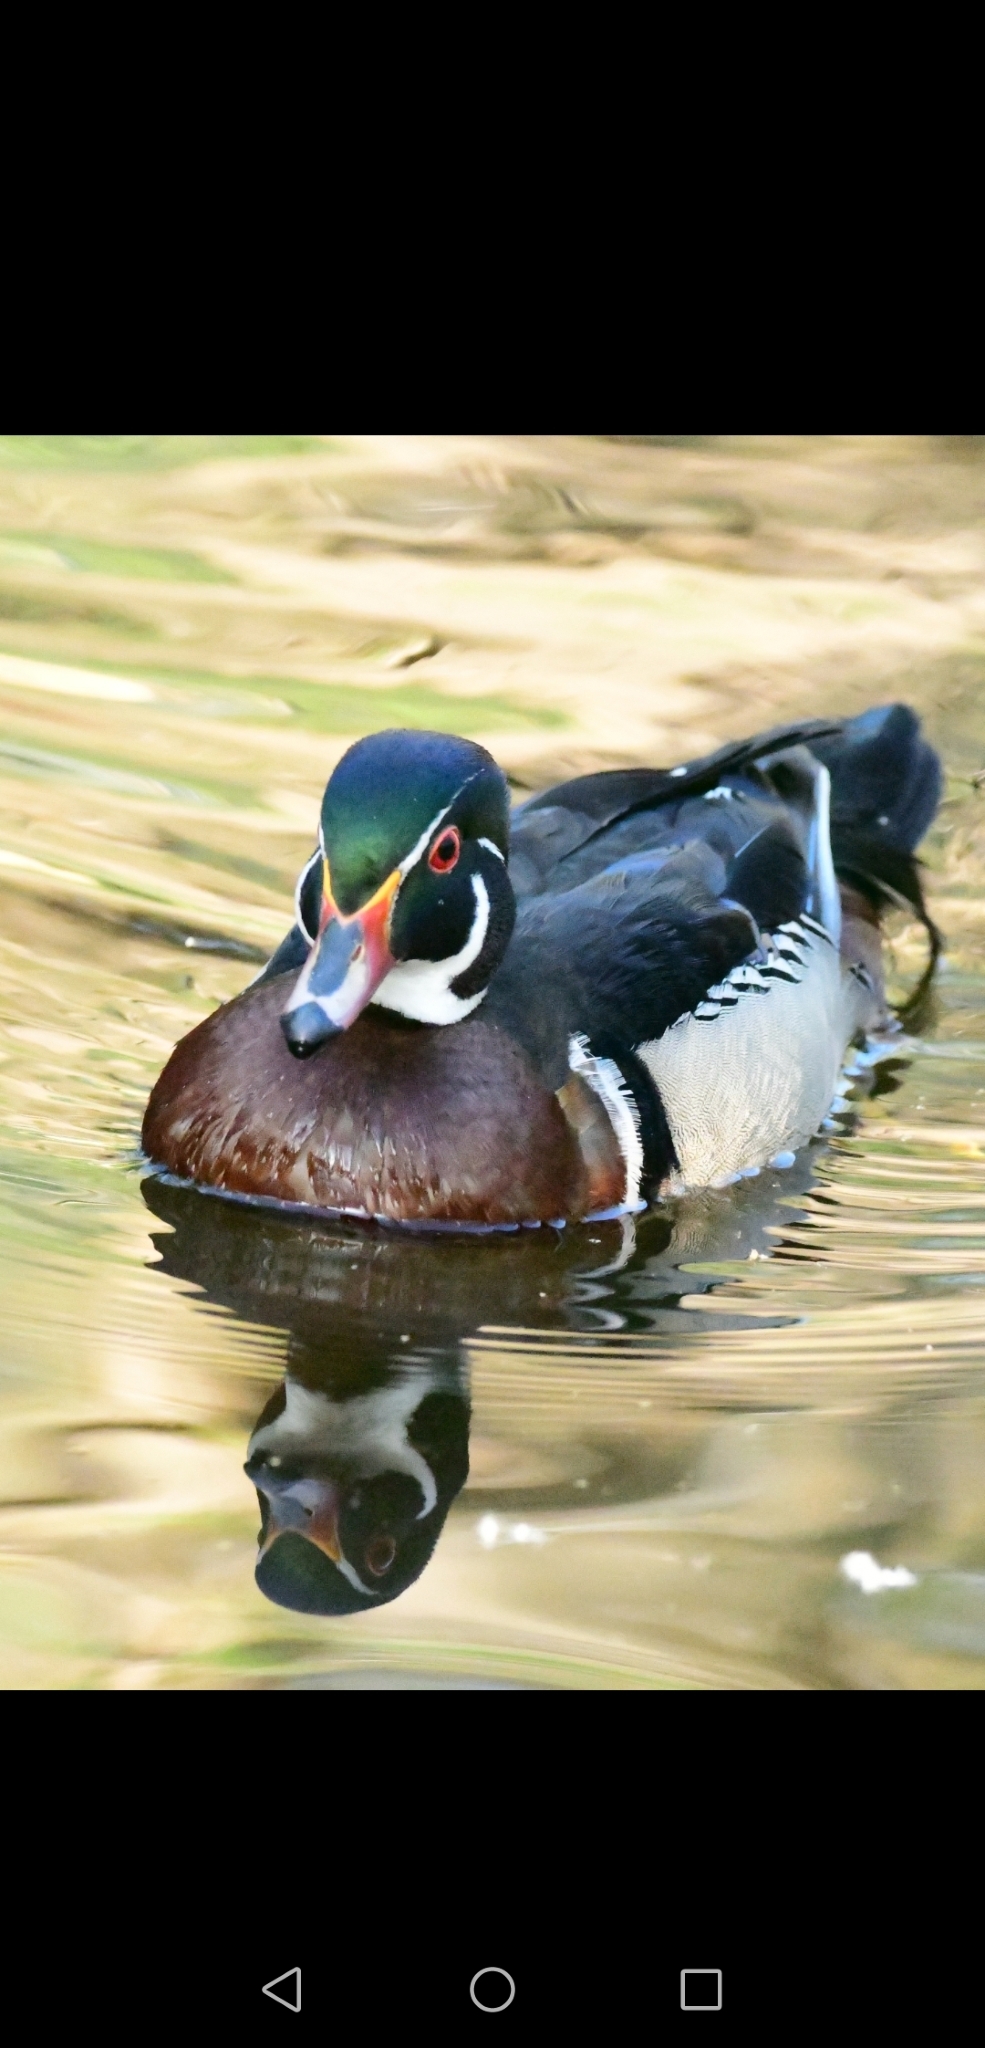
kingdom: Animalia
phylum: Chordata
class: Aves
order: Anseriformes
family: Anatidae
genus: Aix
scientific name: Aix sponsa
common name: Wood duck
